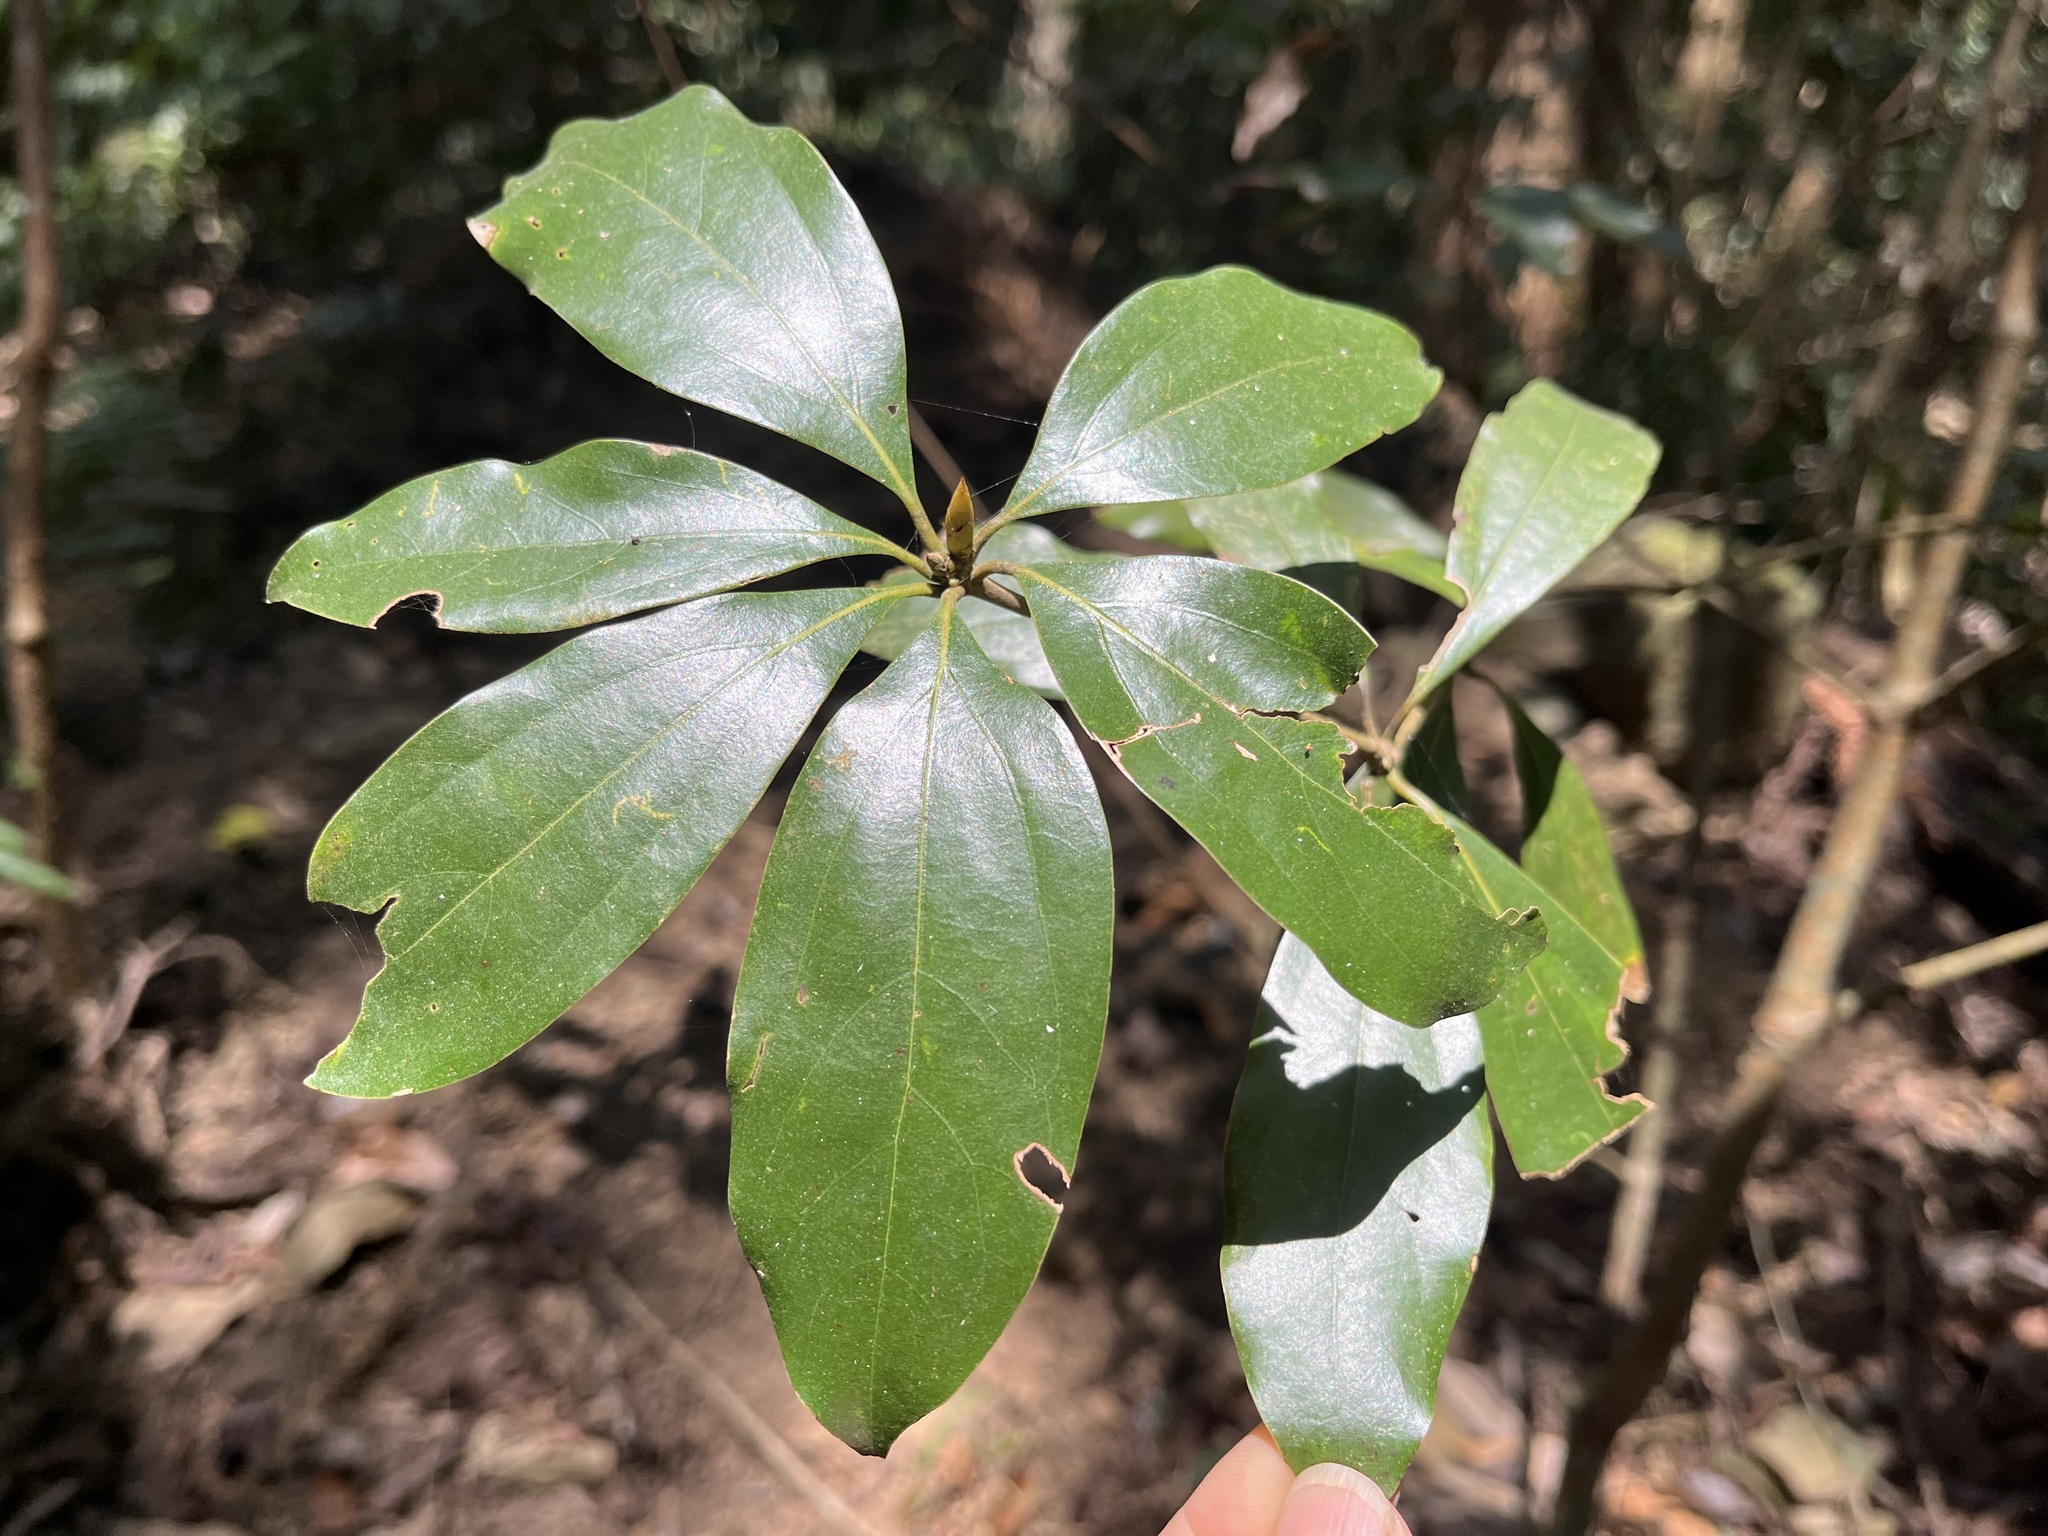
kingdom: Plantae
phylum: Tracheophyta
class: Magnoliopsida
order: Laurales
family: Lauraceae
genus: Neolitsea
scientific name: Neolitsea konishii
